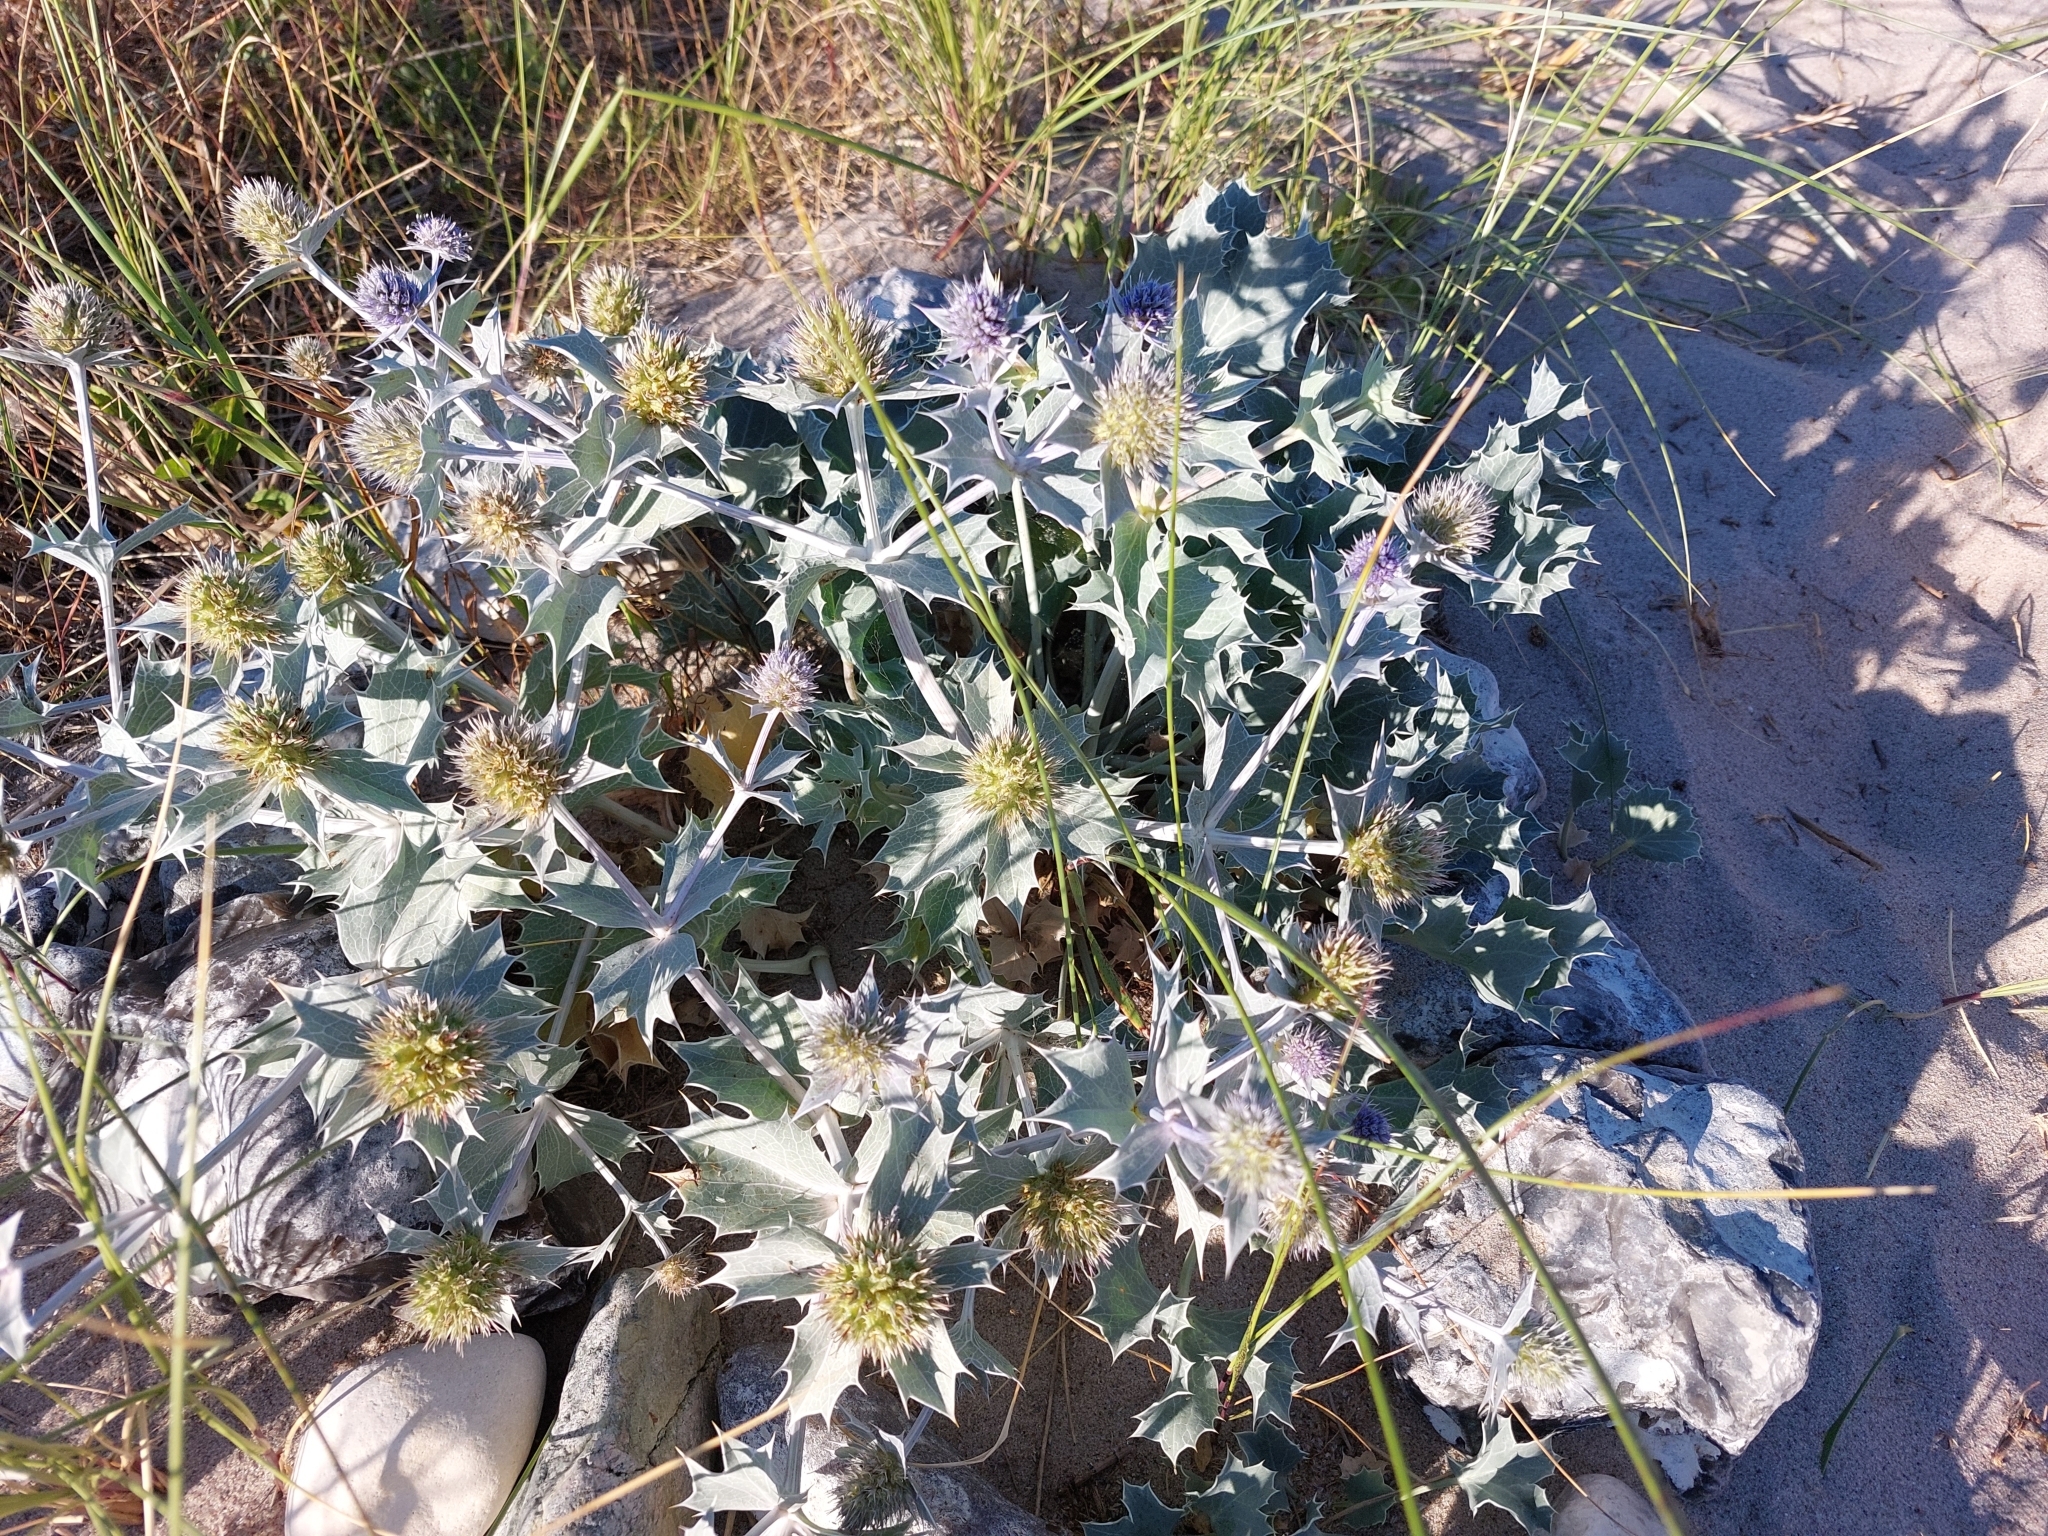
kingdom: Plantae
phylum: Tracheophyta
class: Magnoliopsida
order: Apiales
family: Apiaceae
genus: Eryngium
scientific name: Eryngium maritimum
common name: Sea-holly
